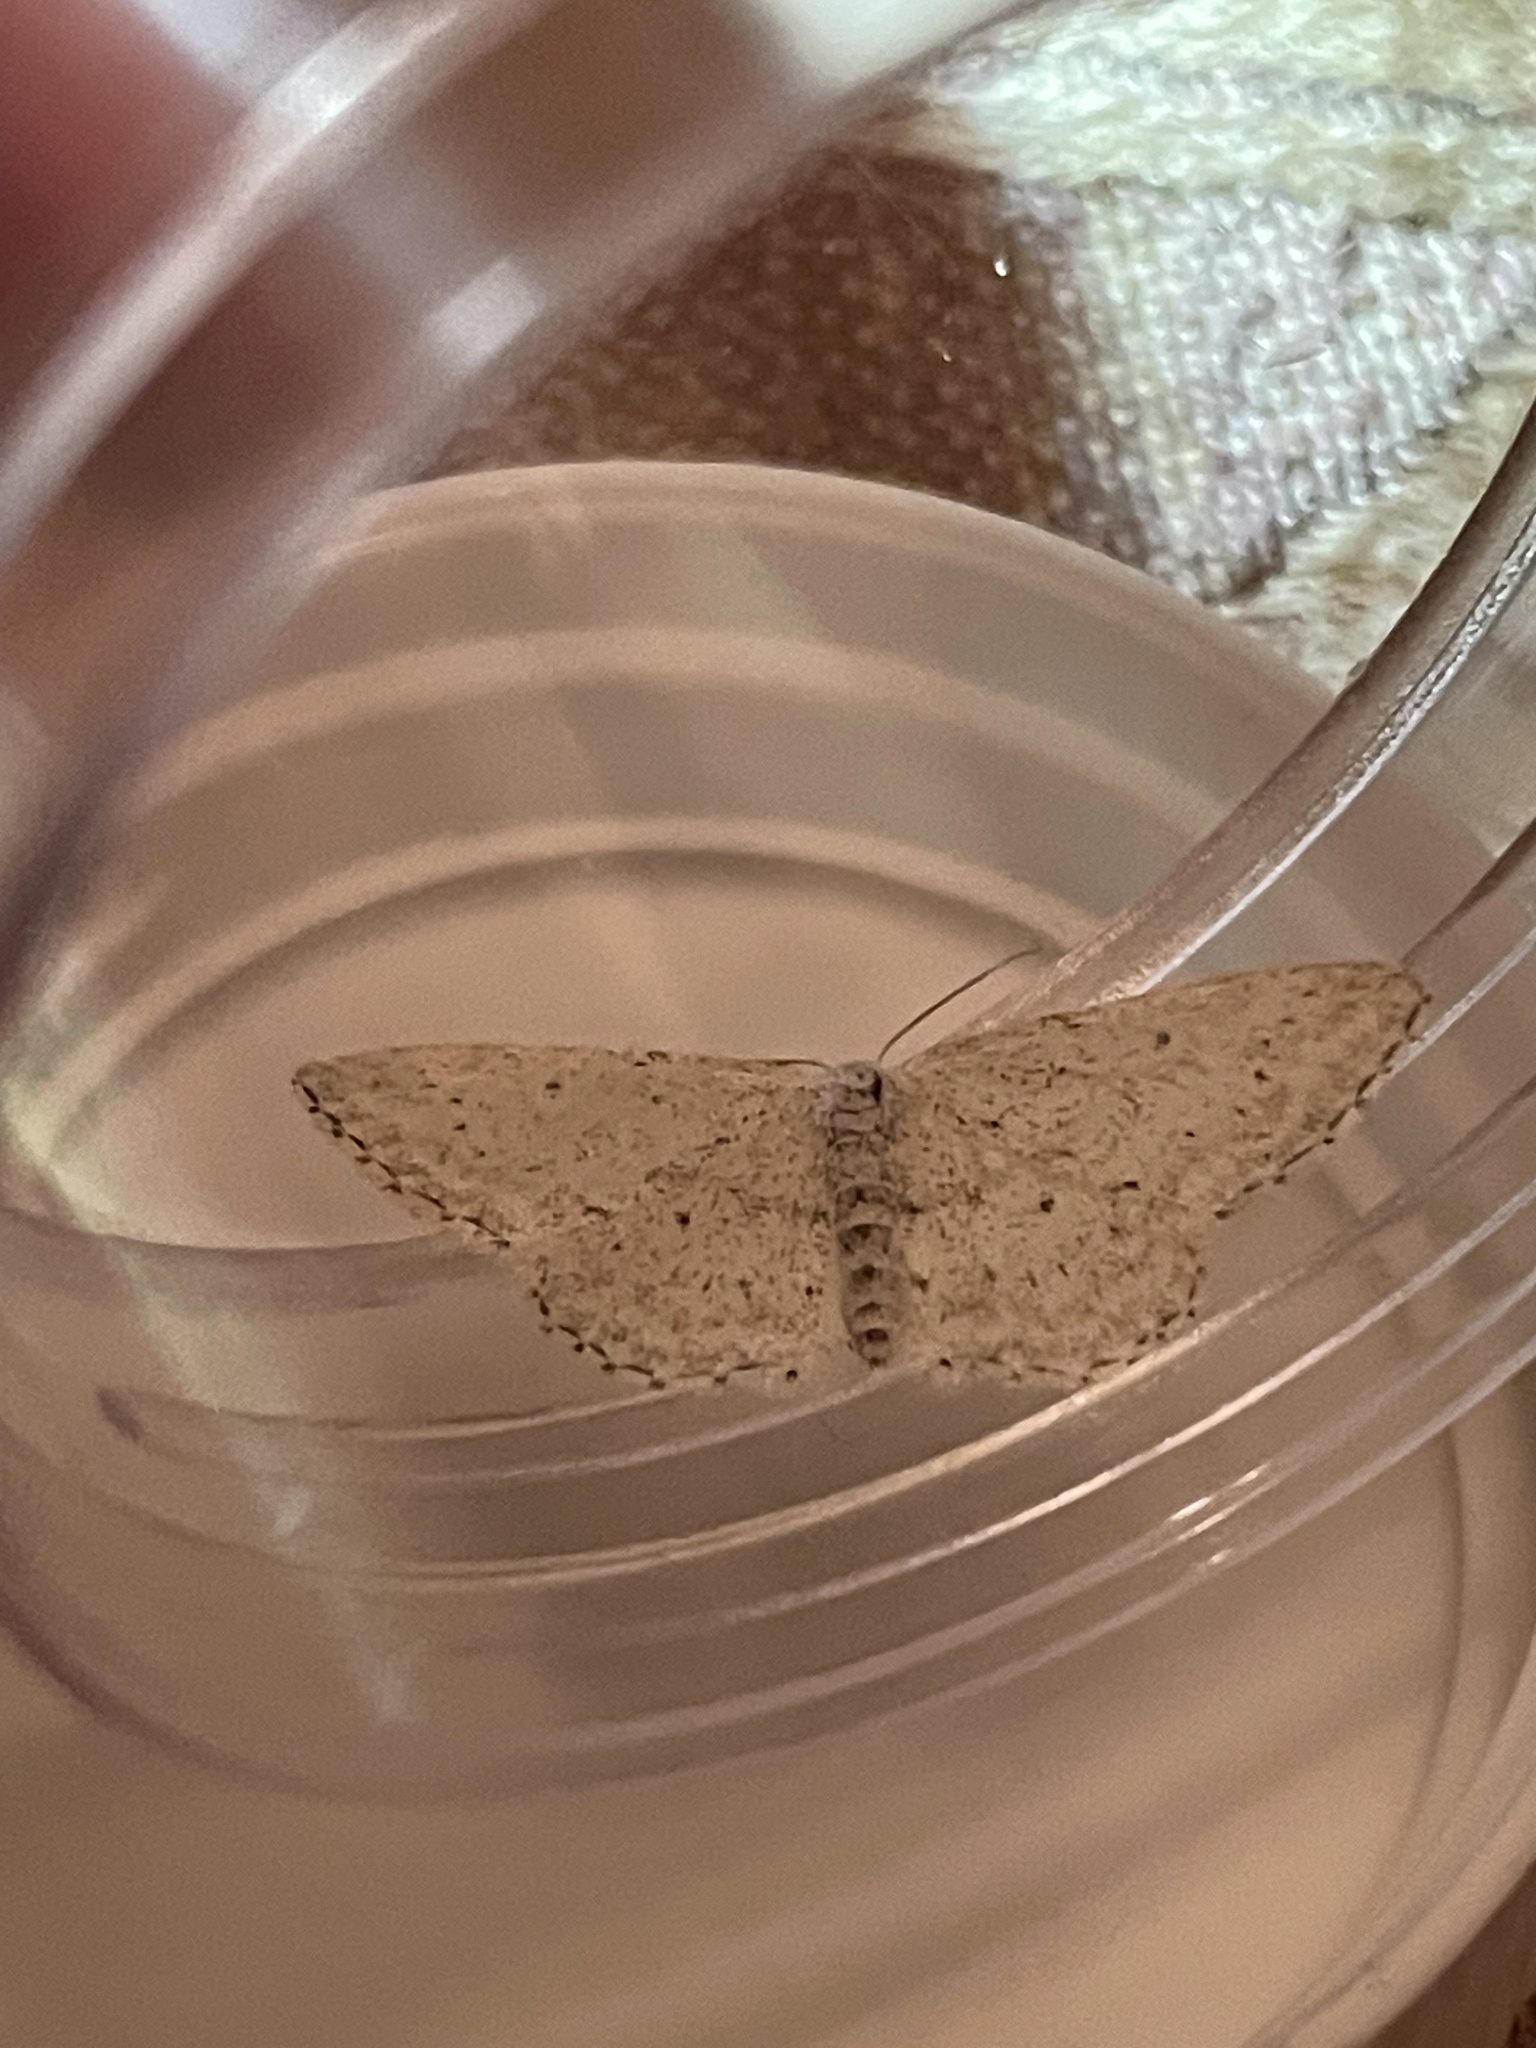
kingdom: Animalia
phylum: Arthropoda
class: Insecta
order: Lepidoptera
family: Geometridae
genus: Idaea
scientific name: Idaea seriata
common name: Small dusty wave
